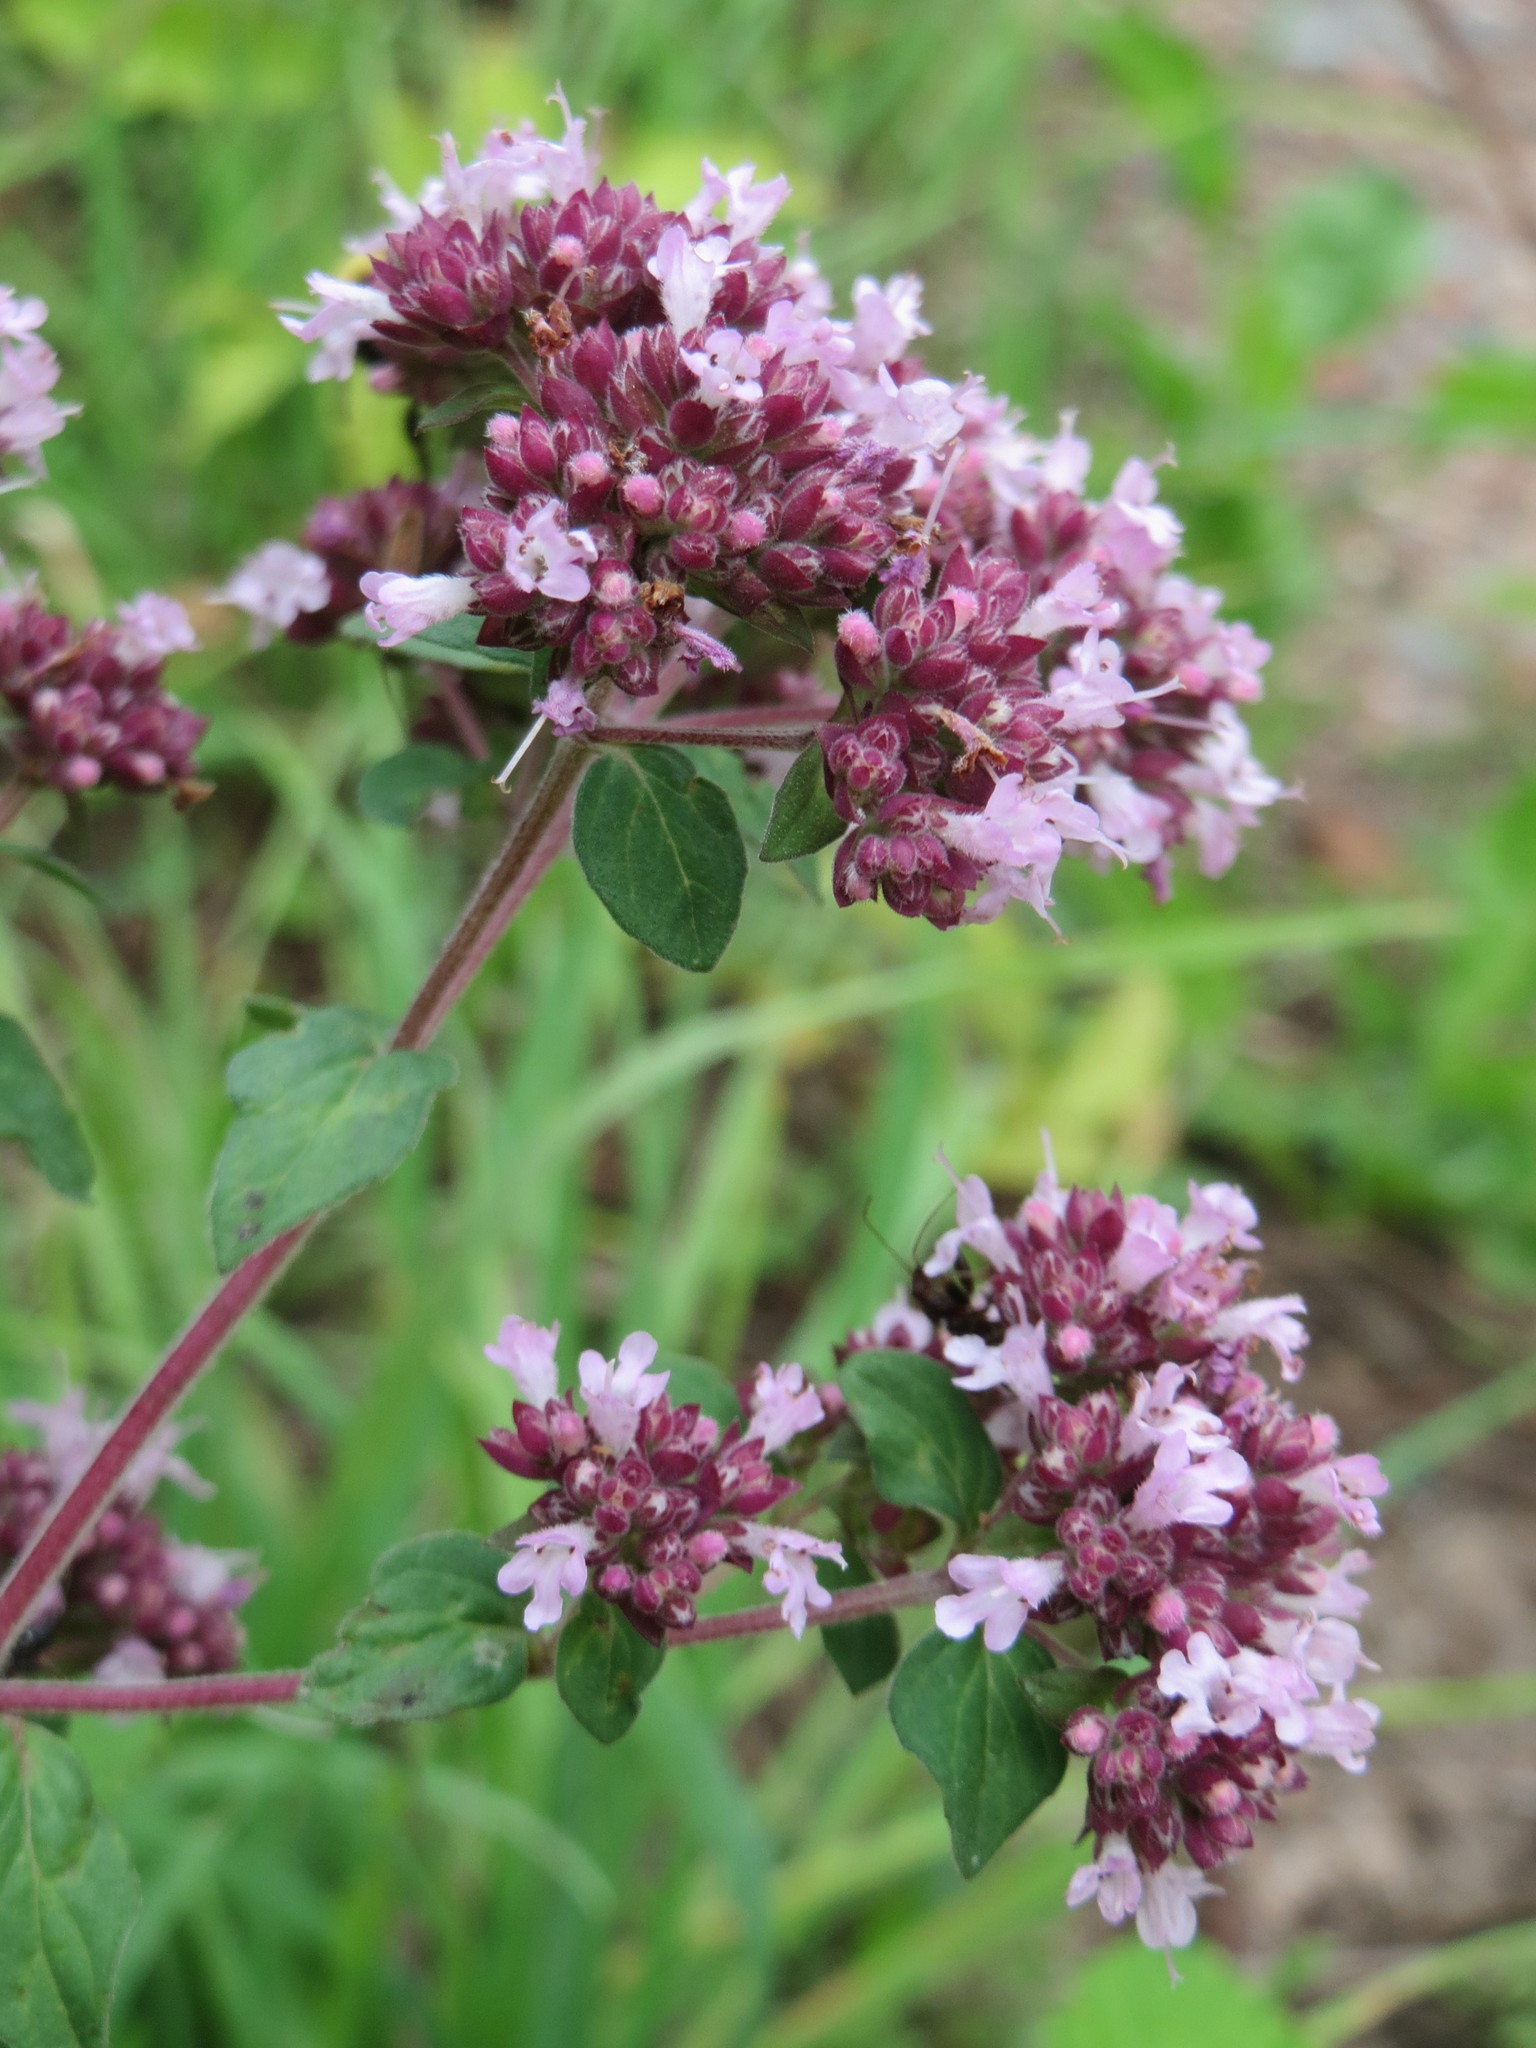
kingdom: Plantae
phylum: Tracheophyta
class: Magnoliopsida
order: Lamiales
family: Lamiaceae
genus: Origanum
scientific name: Origanum vulgare
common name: Wild marjoram
